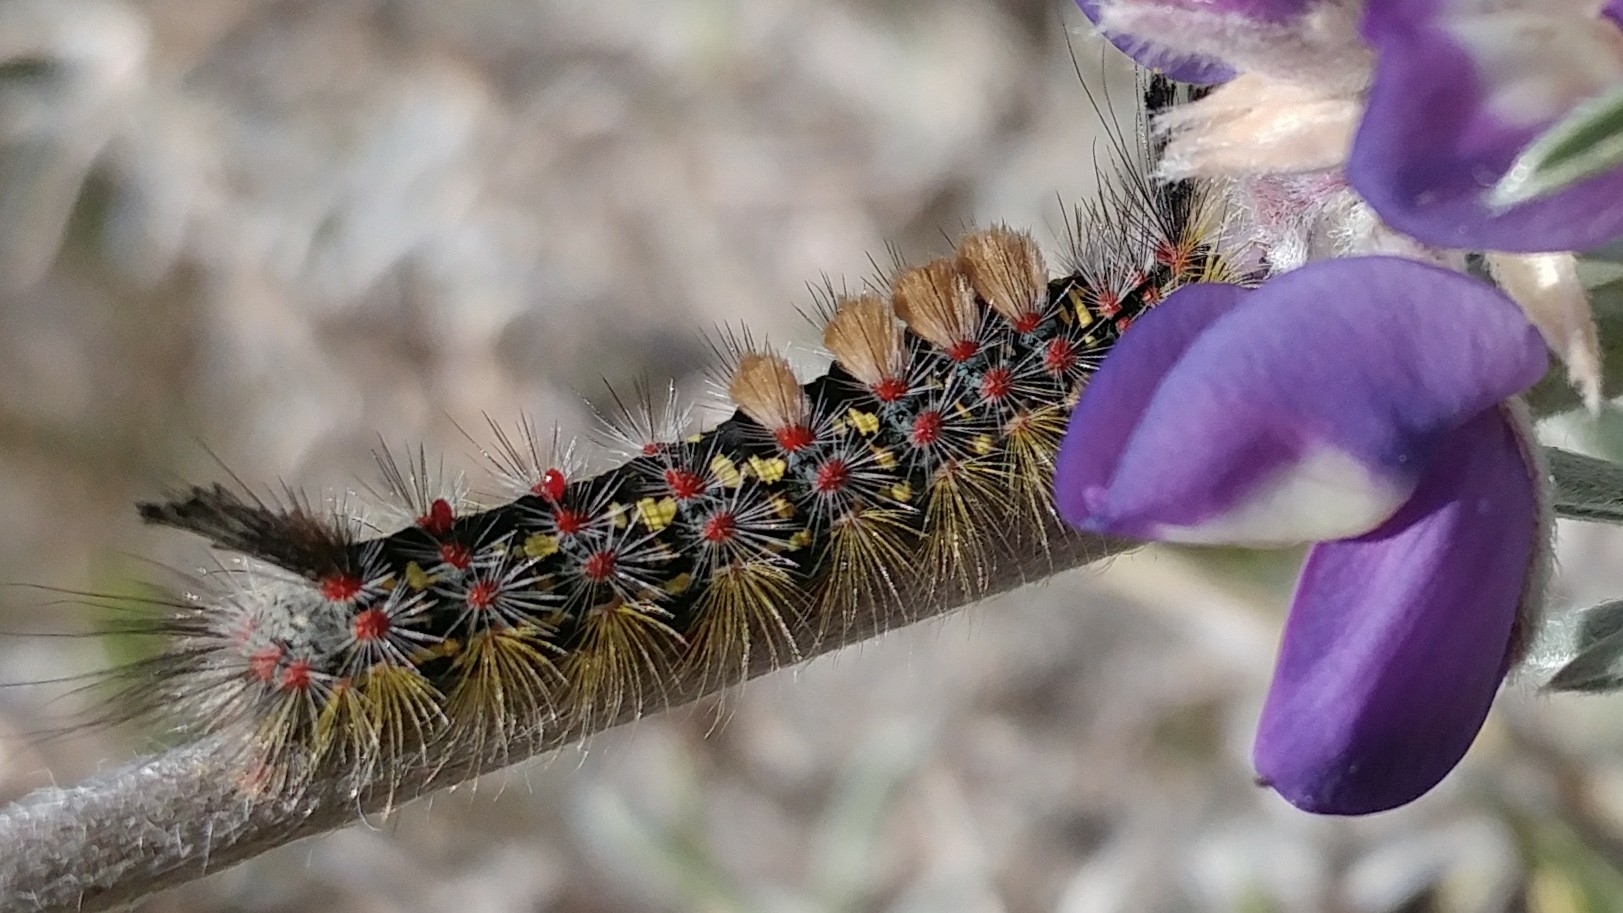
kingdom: Animalia
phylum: Arthropoda
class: Insecta
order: Lepidoptera
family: Erebidae
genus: Orgyia
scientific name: Orgyia vetusta
